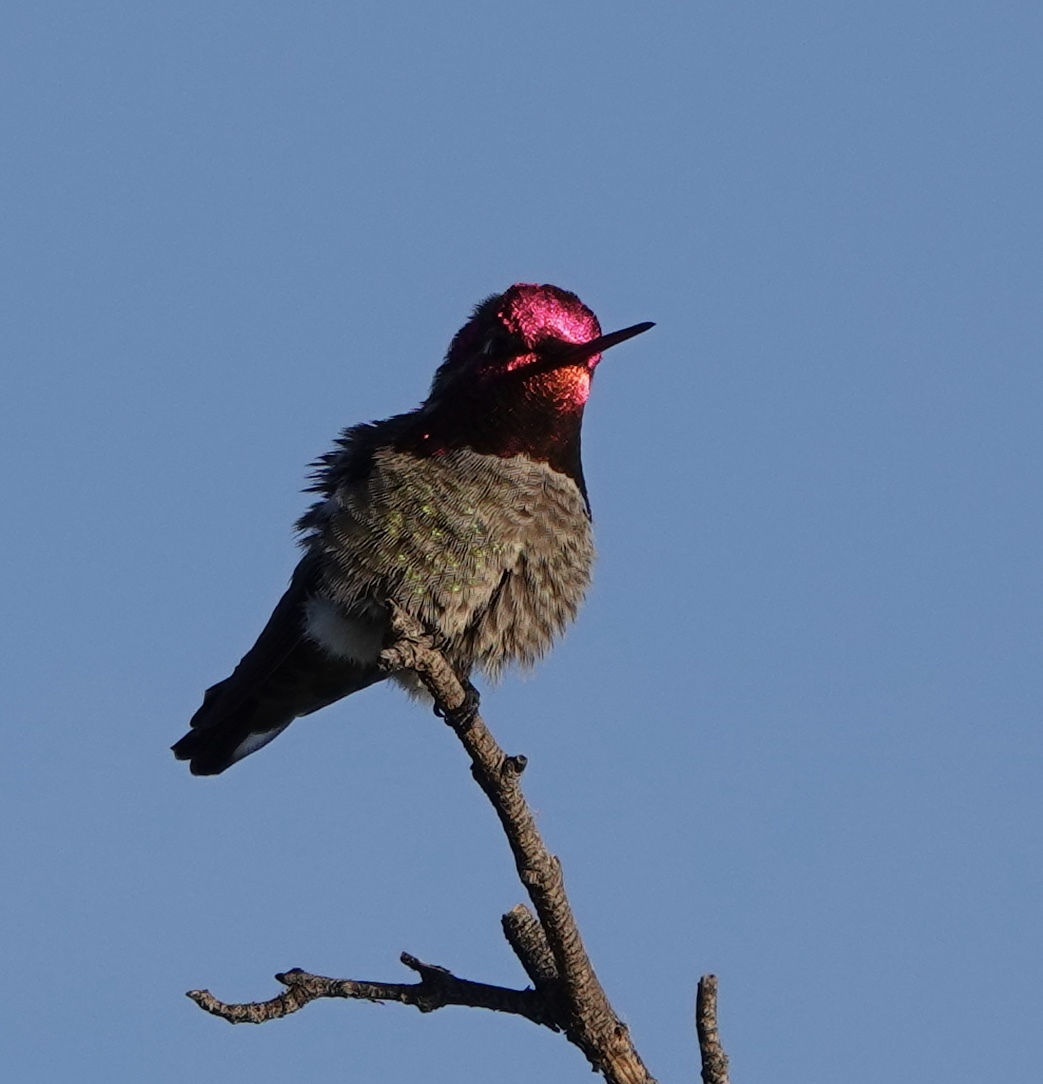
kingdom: Animalia
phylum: Chordata
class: Aves
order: Apodiformes
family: Trochilidae
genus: Calypte
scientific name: Calypte anna
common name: Anna's hummingbird
